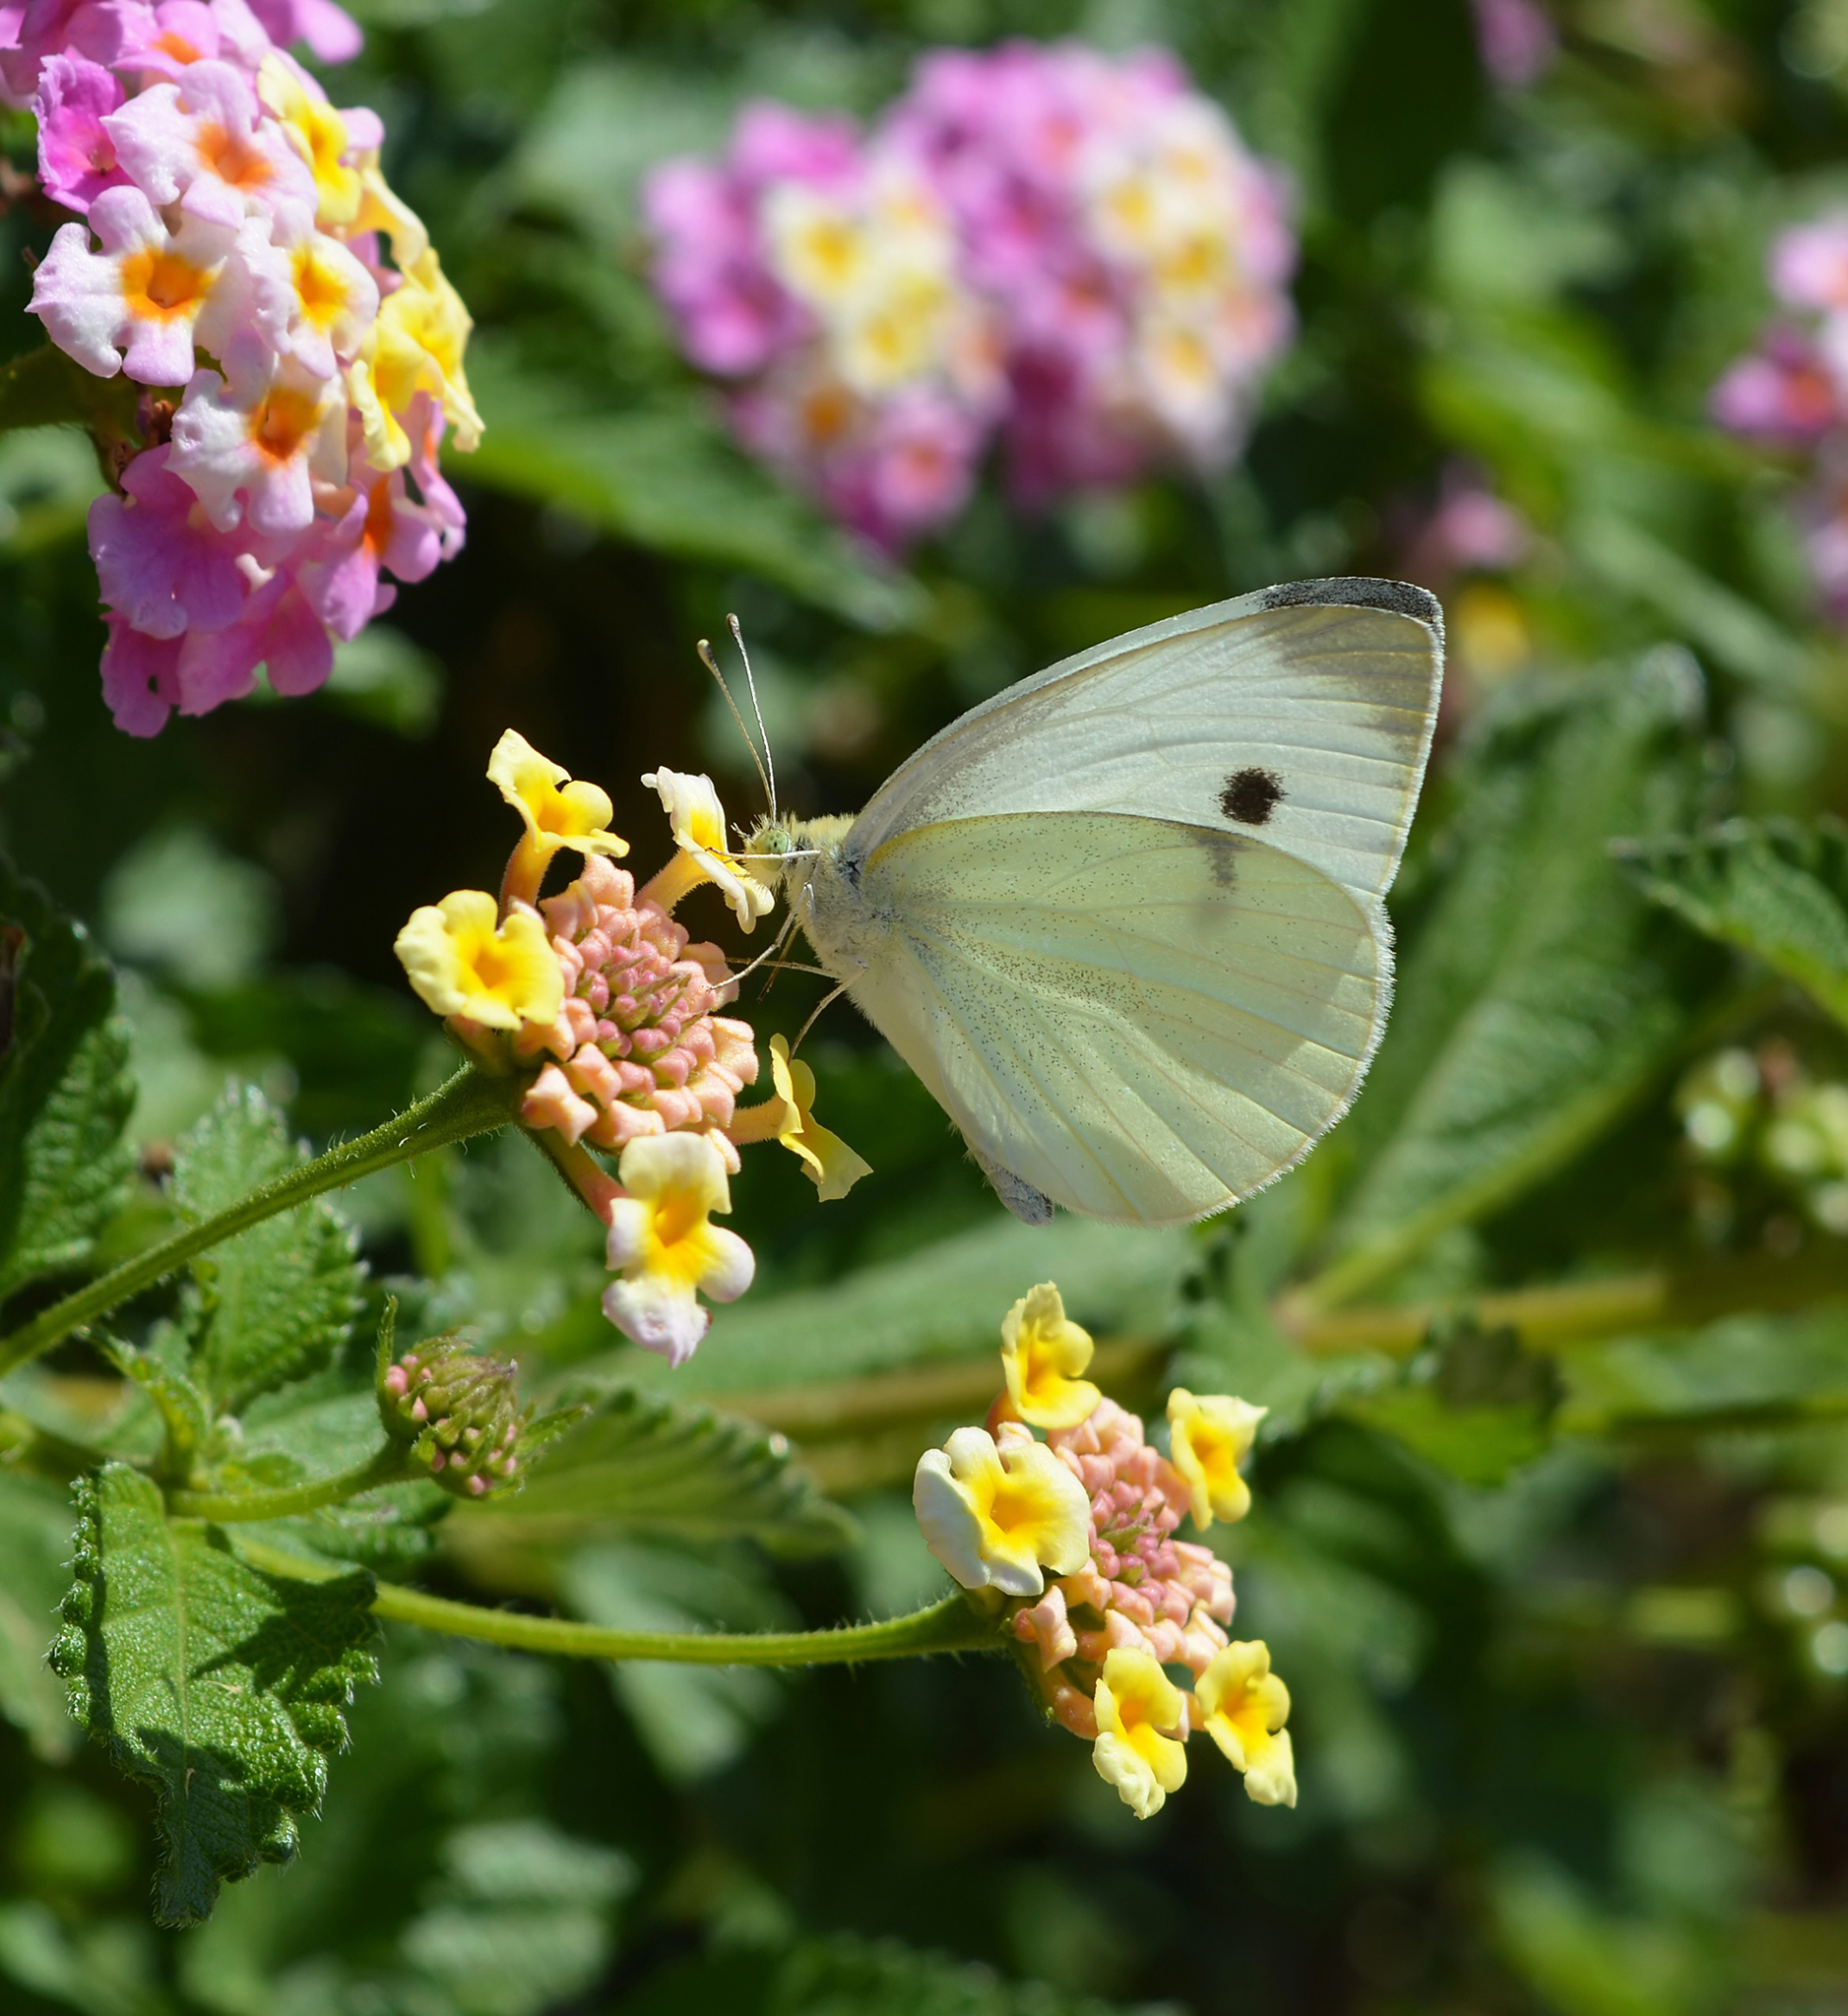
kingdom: Animalia
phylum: Arthropoda
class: Insecta
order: Lepidoptera
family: Pieridae
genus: Pieris
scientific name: Pieris rapae
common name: Small white
